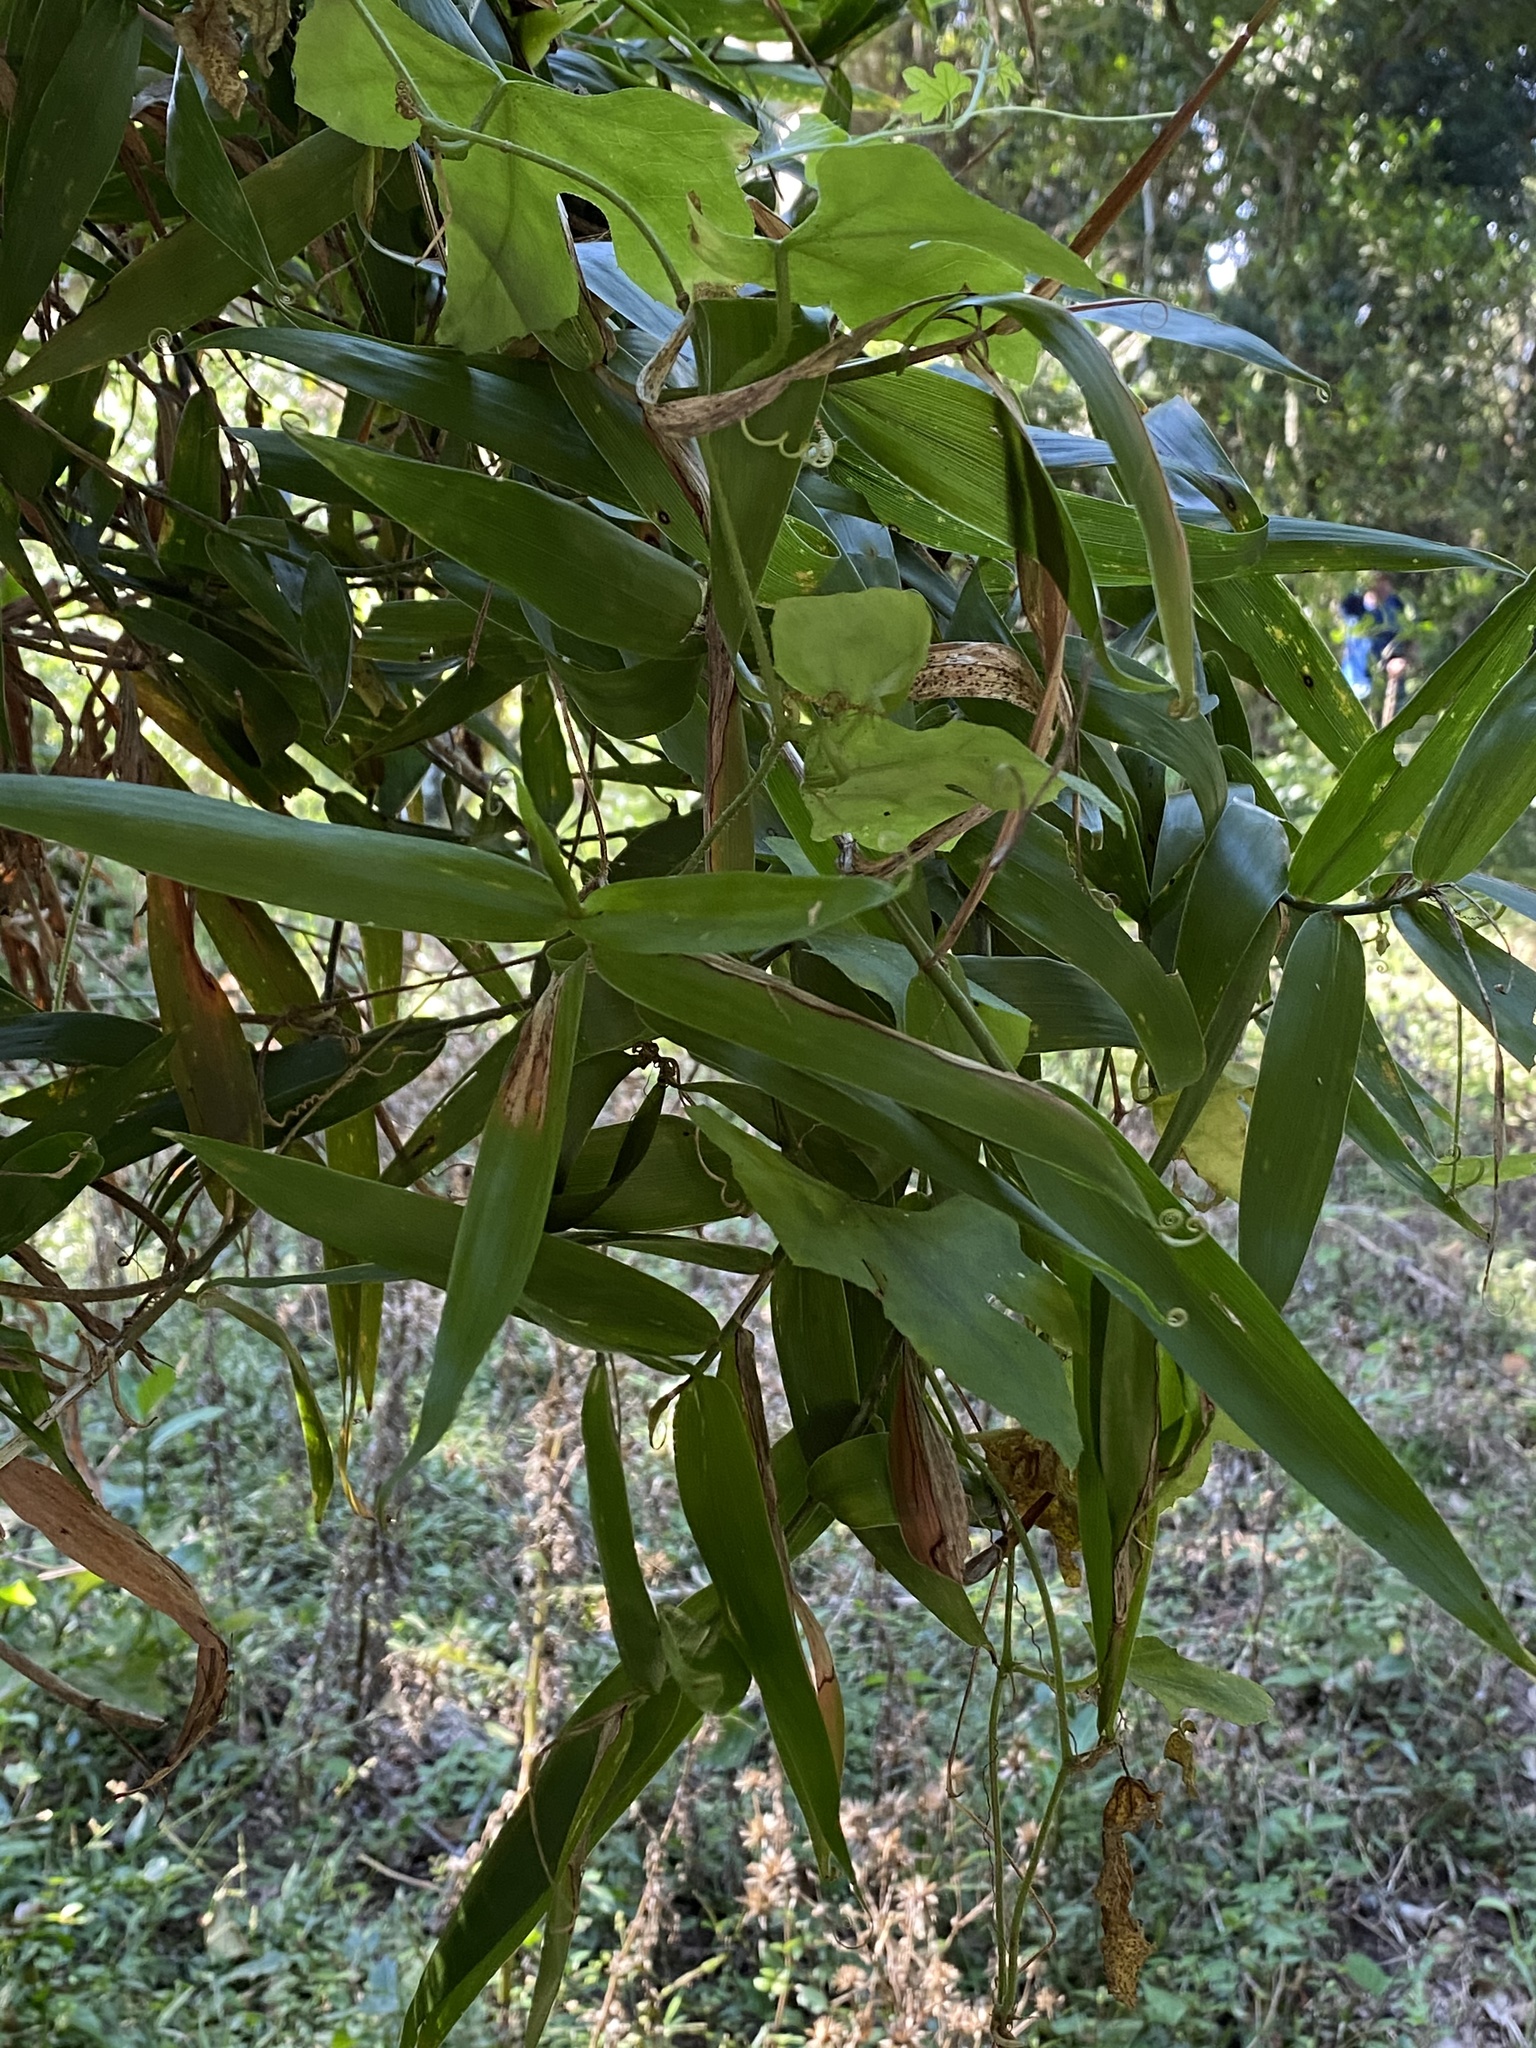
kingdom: Plantae
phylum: Tracheophyta
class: Magnoliopsida
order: Cucurbitales
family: Cucurbitaceae
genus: Coccinia
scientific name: Coccinia palmata
